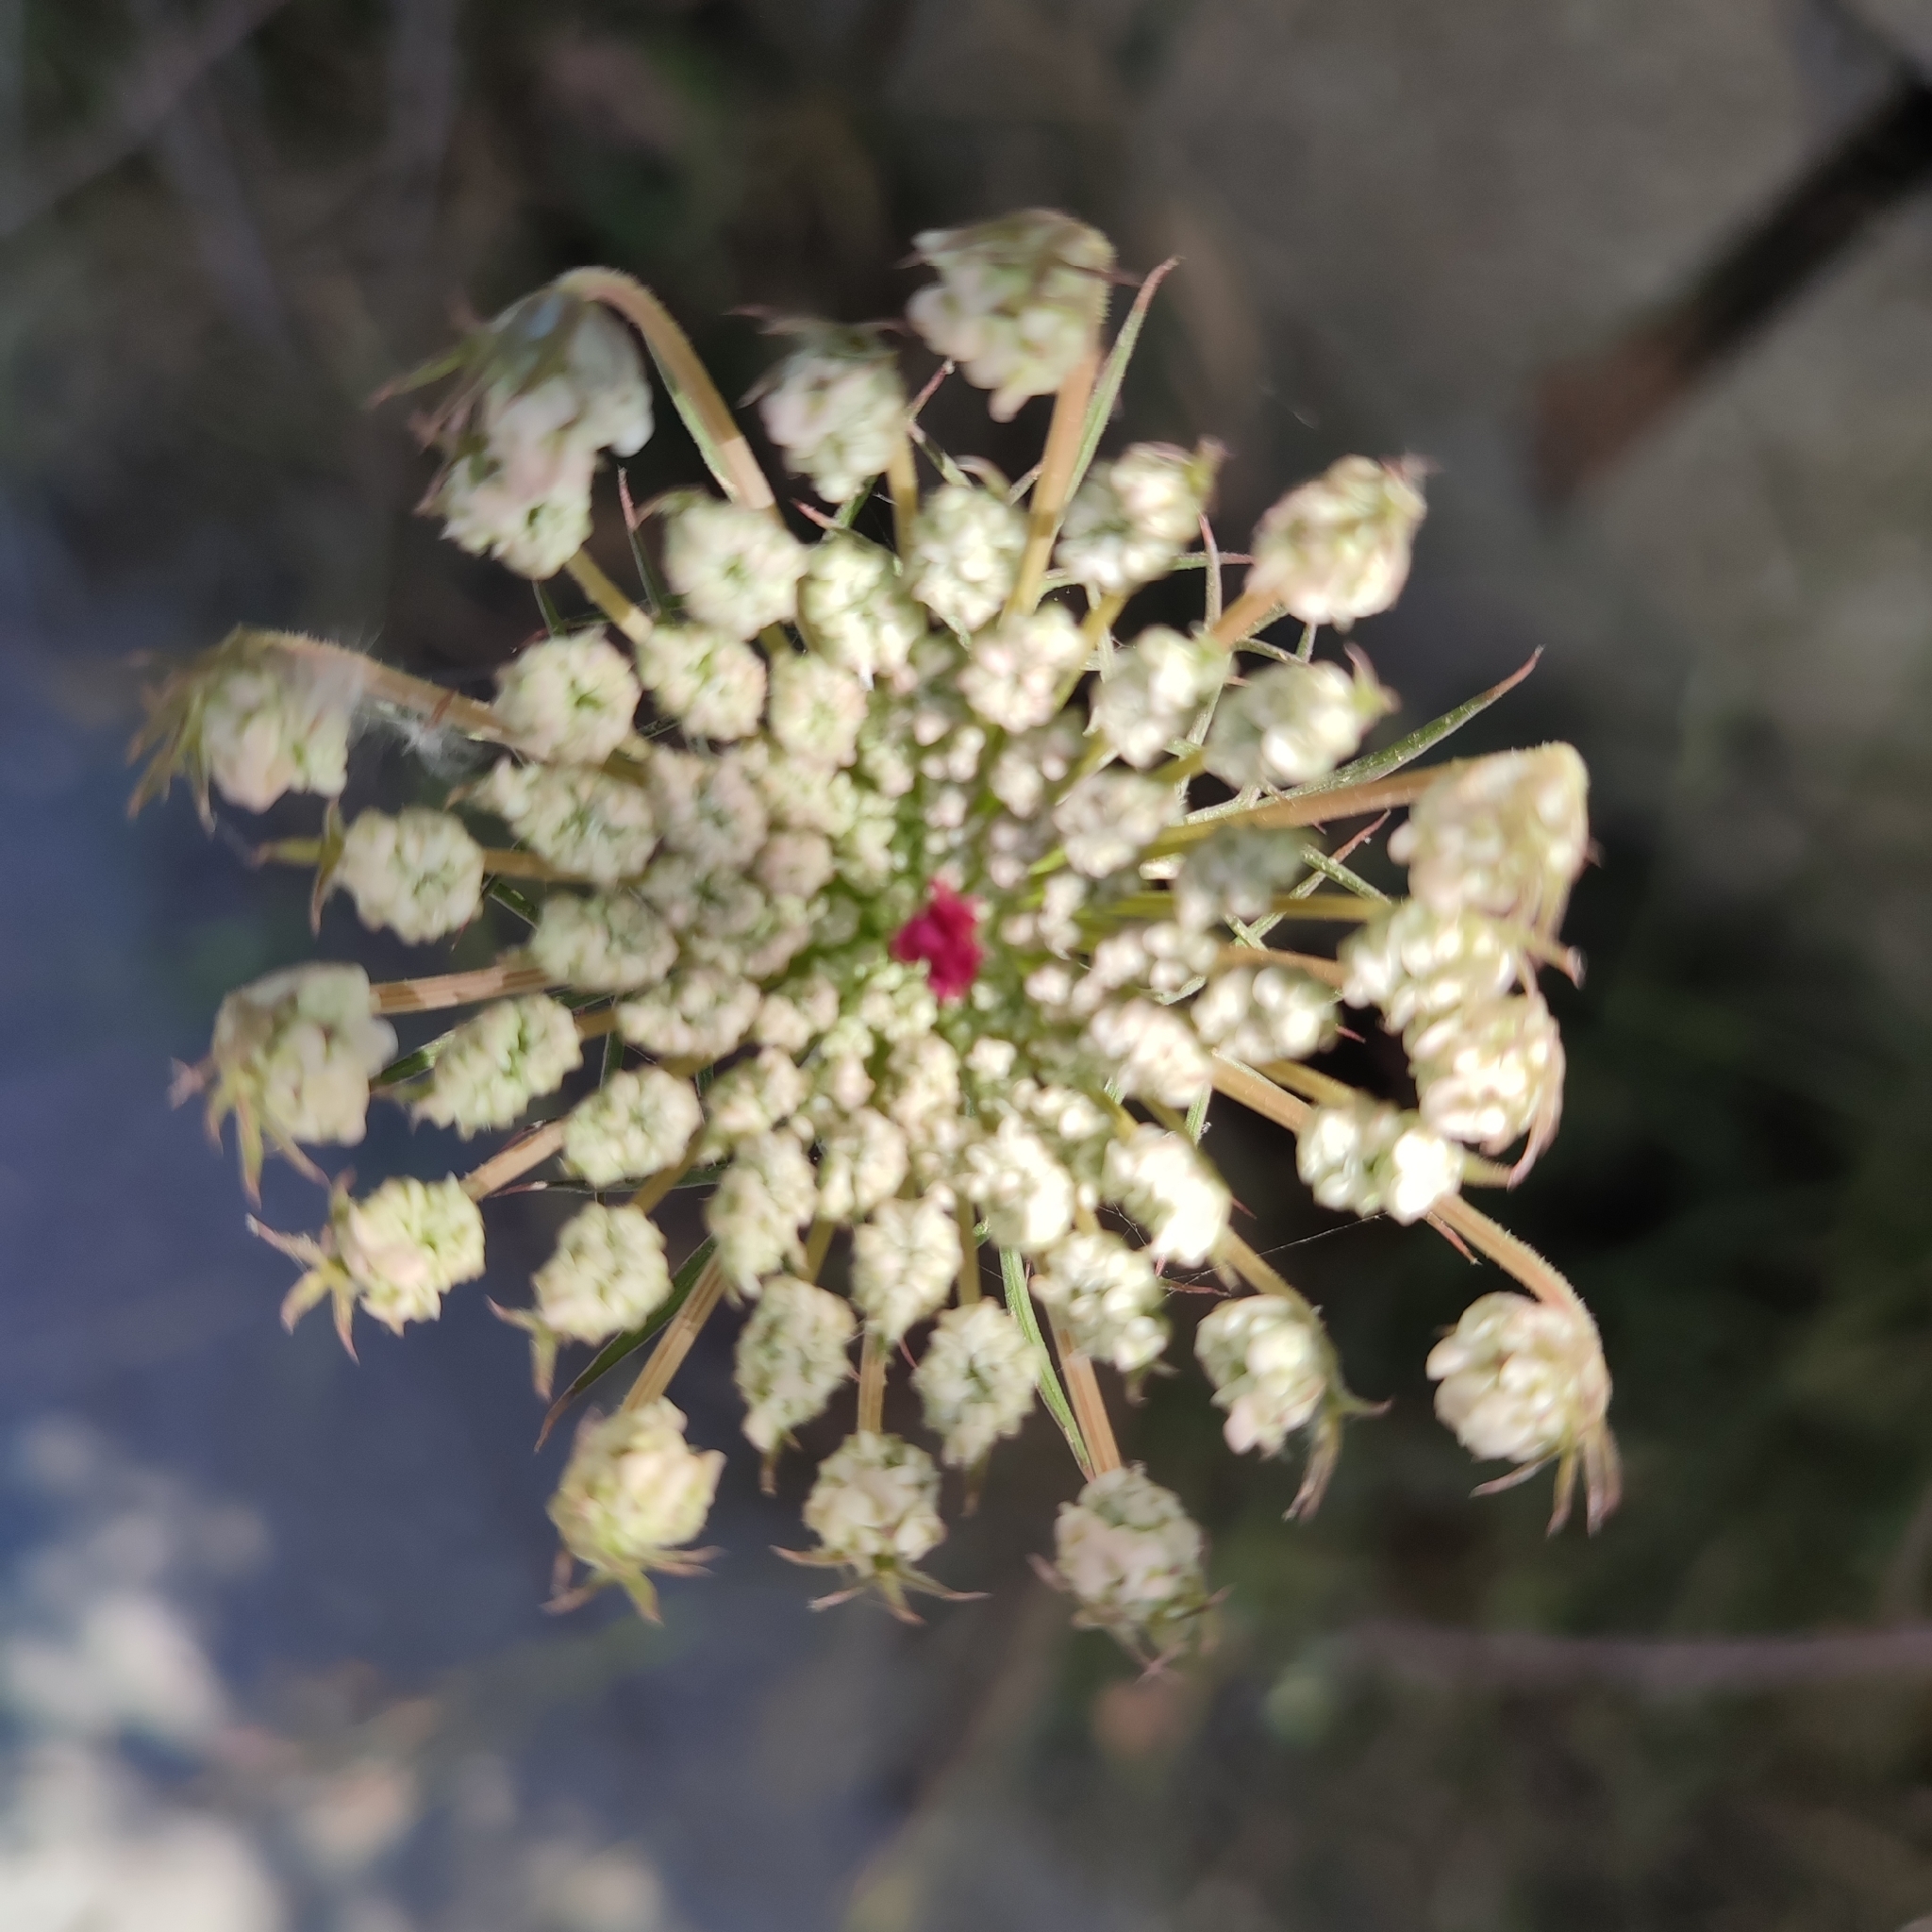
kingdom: Plantae
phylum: Tracheophyta
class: Magnoliopsida
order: Apiales
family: Apiaceae
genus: Daucus
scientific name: Daucus carota
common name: Wild carrot
